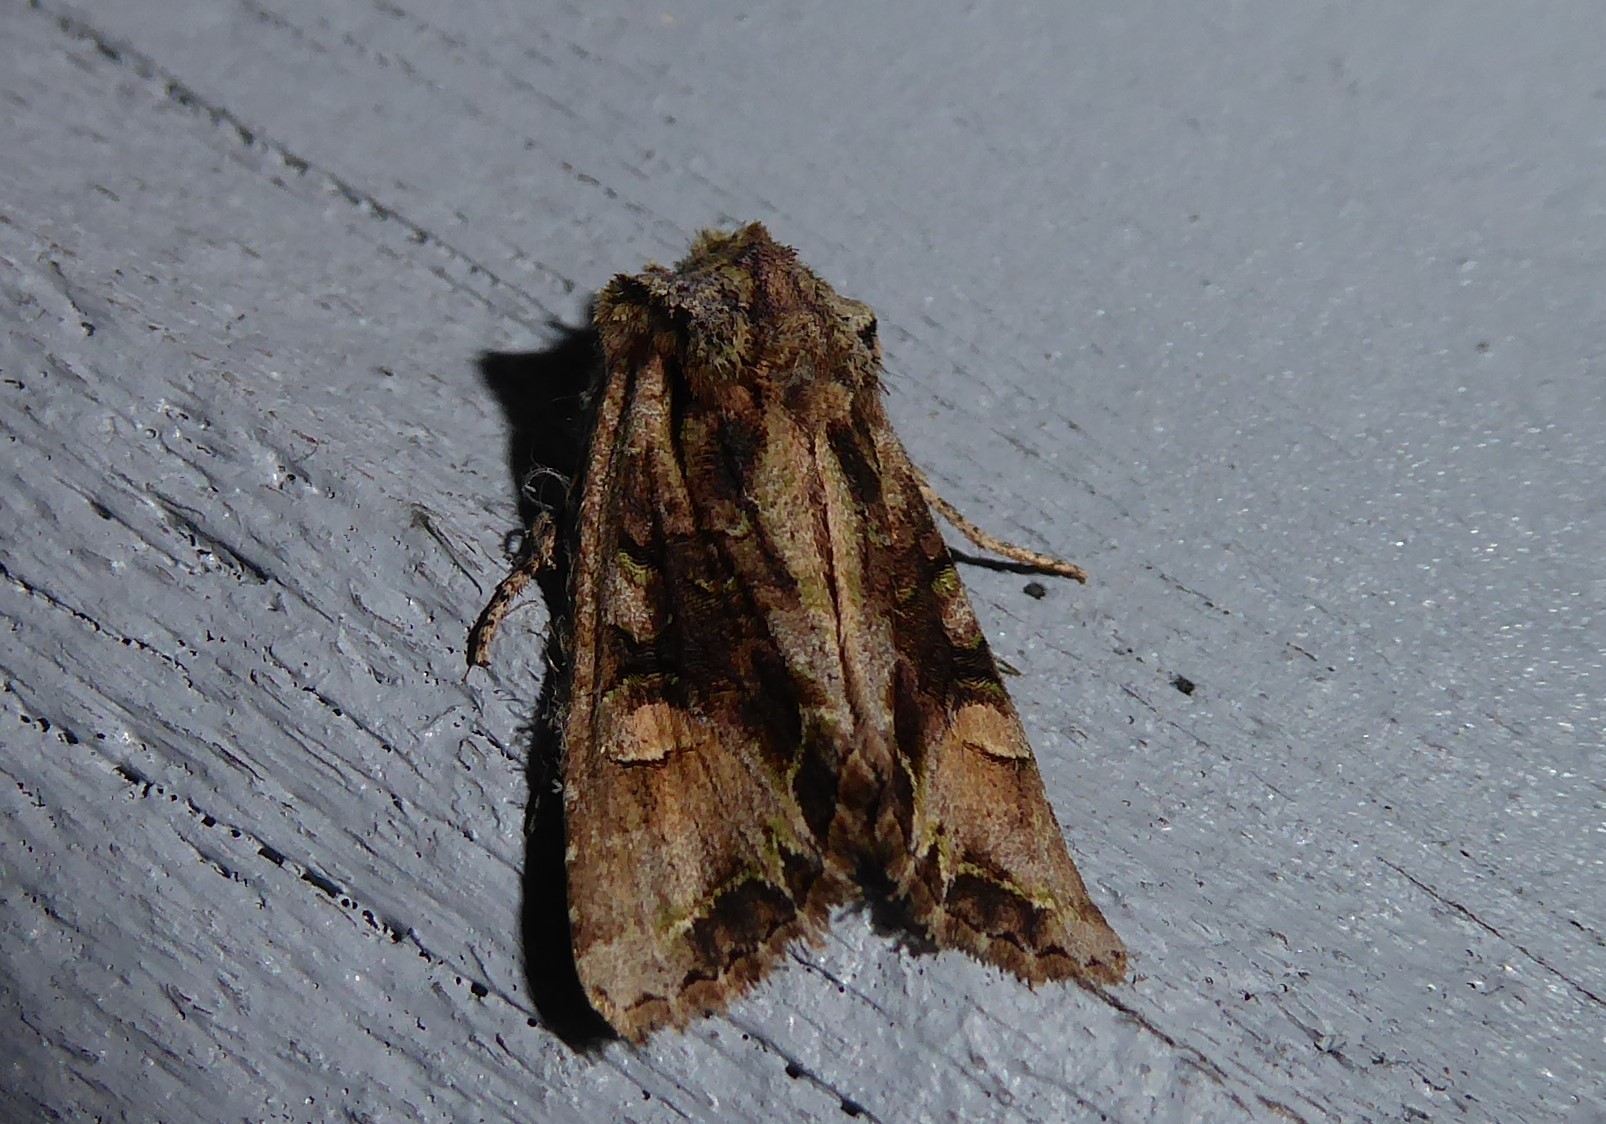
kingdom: Animalia
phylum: Arthropoda
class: Insecta
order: Lepidoptera
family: Noctuidae
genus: Ichneutica
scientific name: Ichneutica insignis
